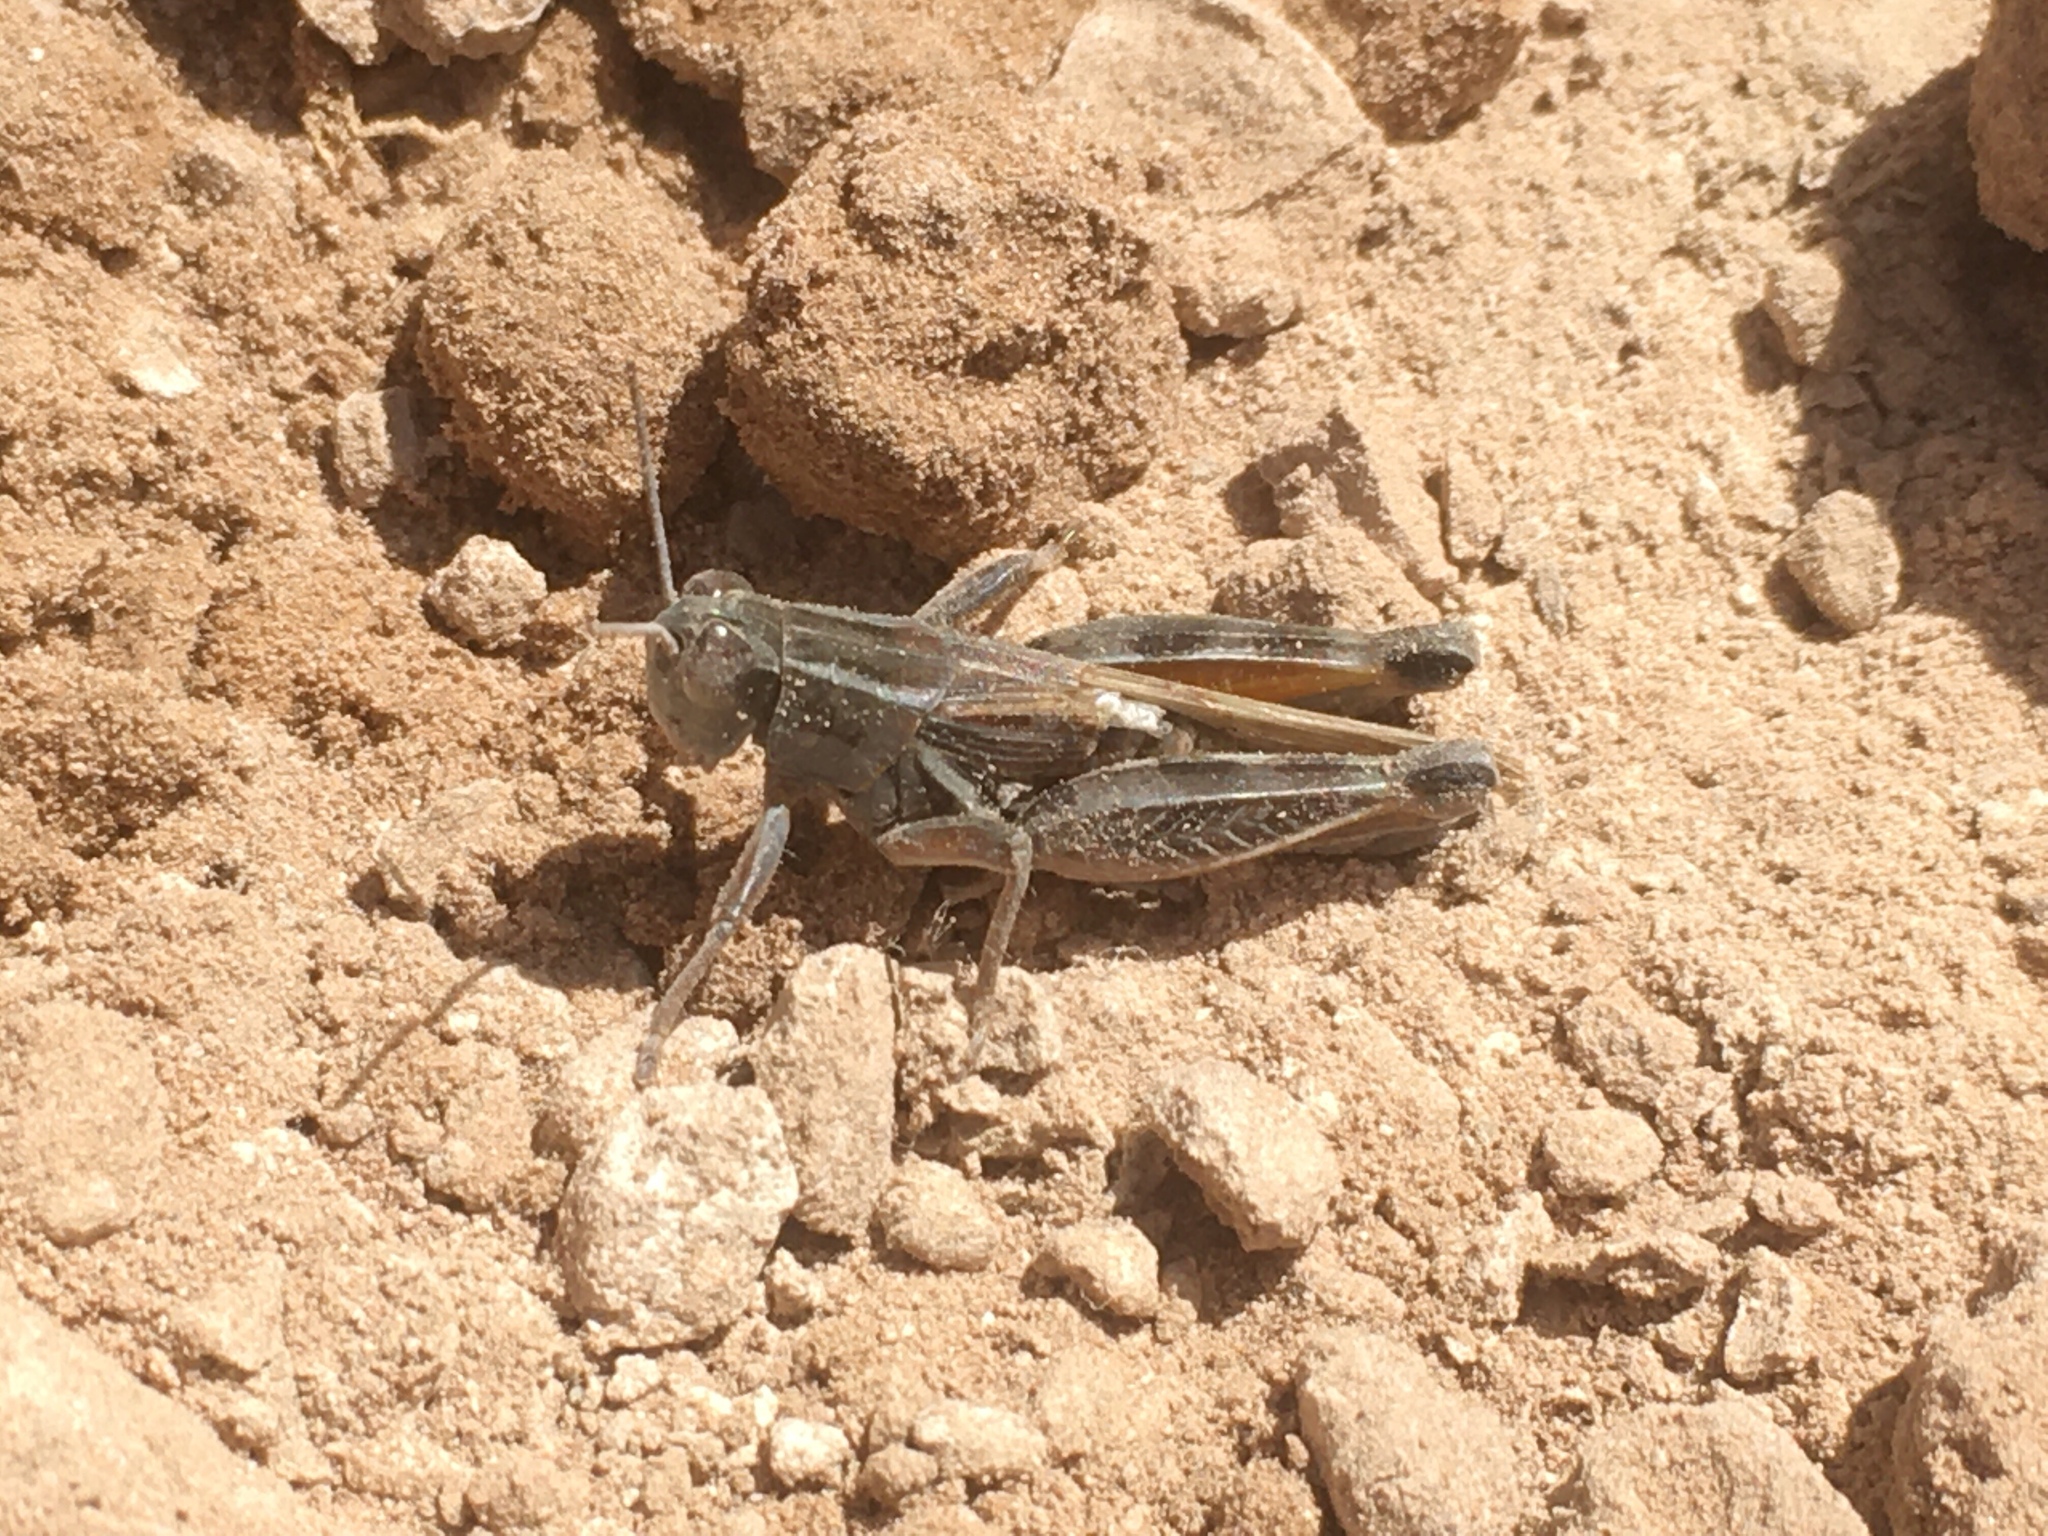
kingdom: Animalia
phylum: Arthropoda
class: Insecta
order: Orthoptera
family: Acrididae
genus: Dichroplus
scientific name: Dichroplus pratensis
